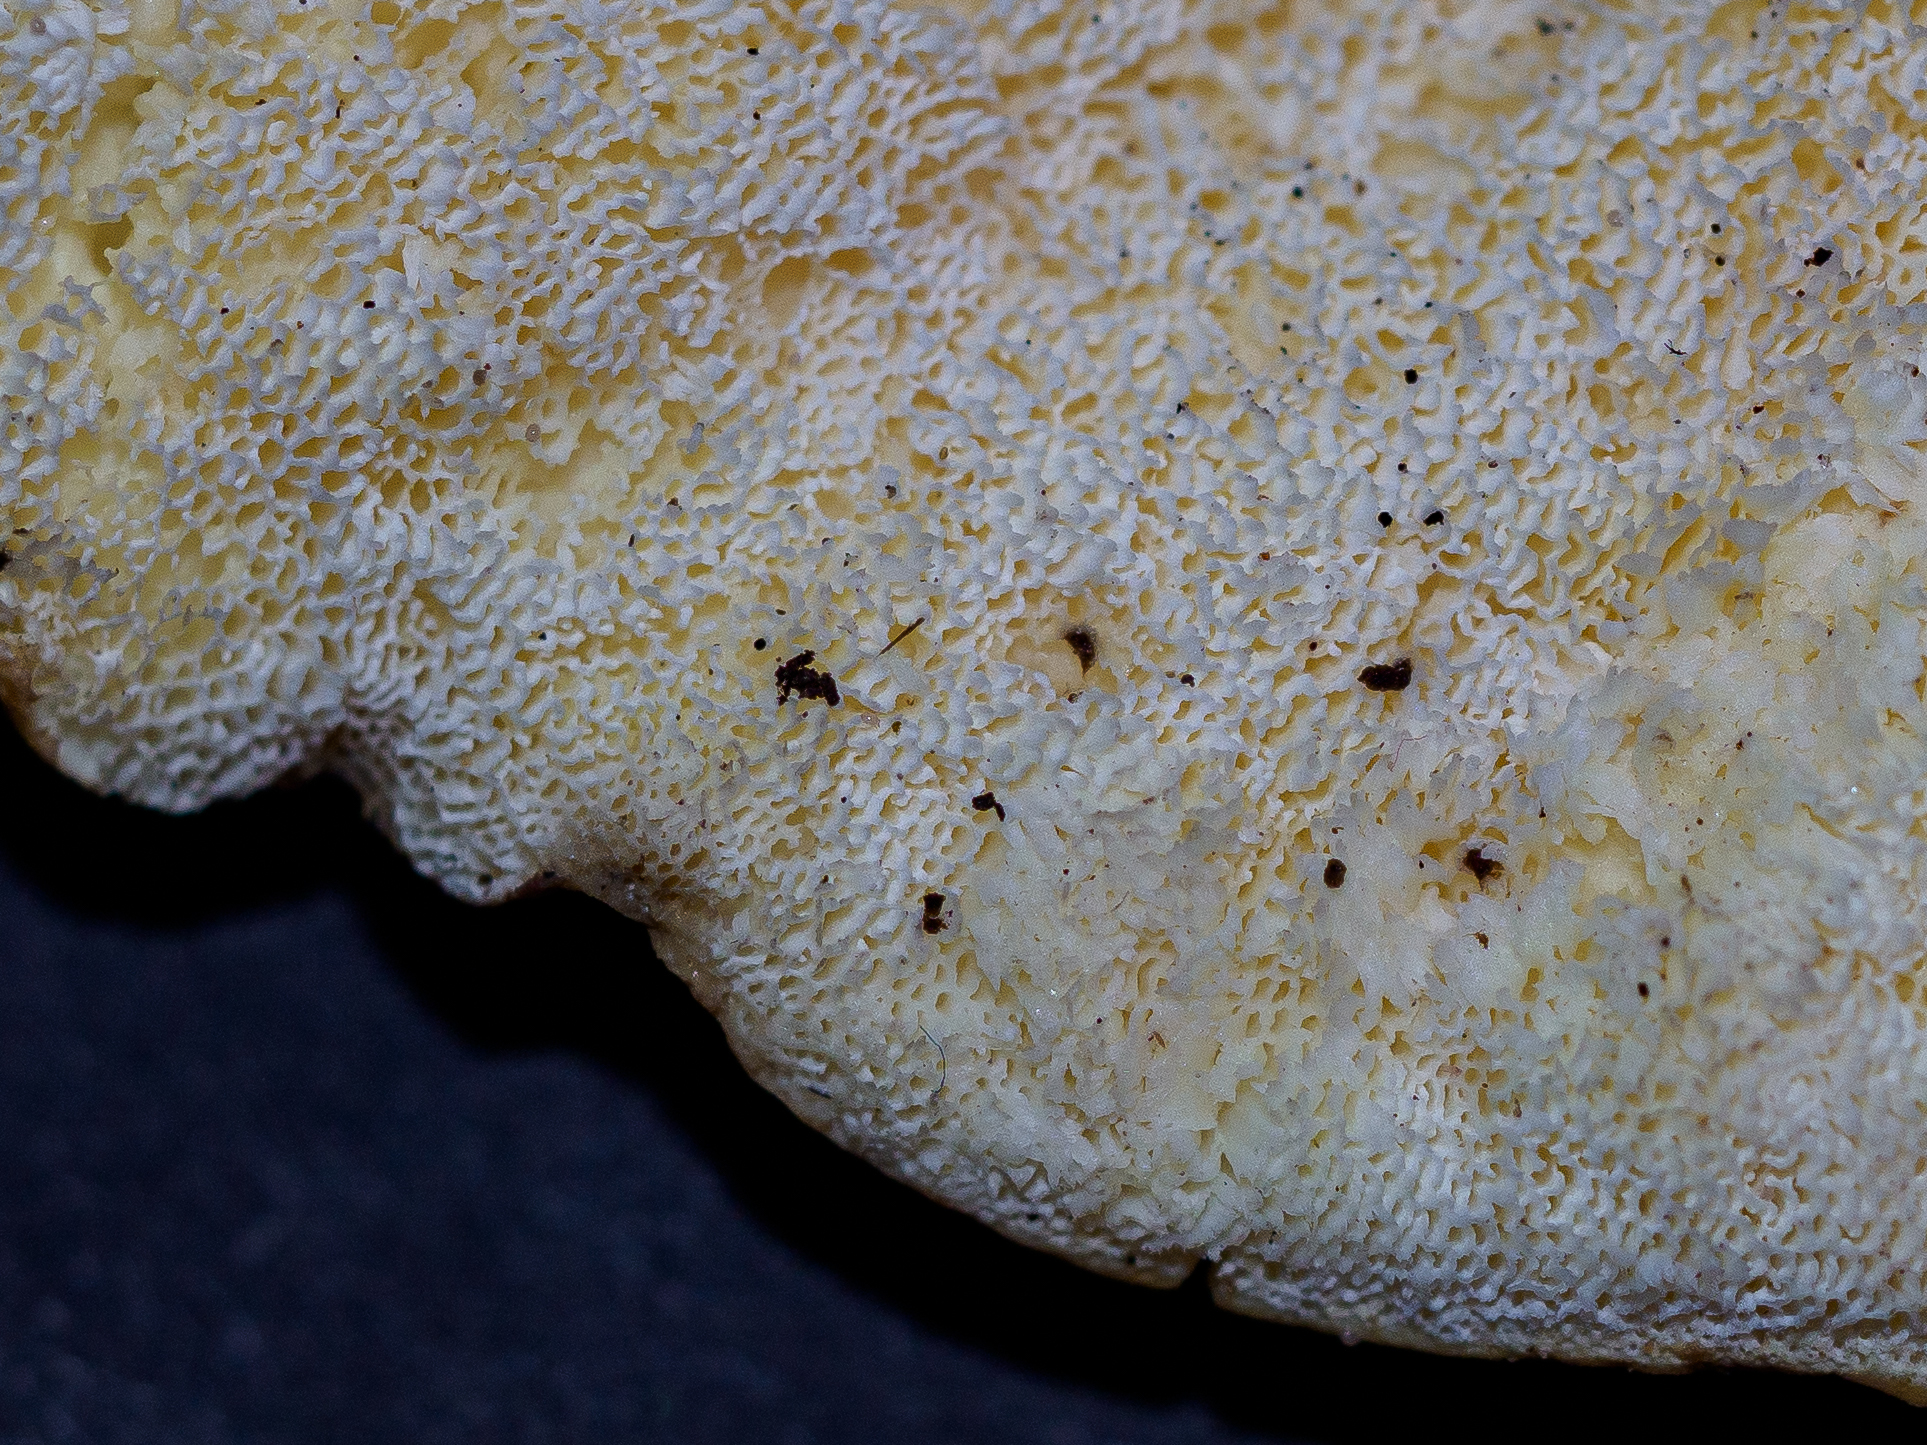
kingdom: Fungi
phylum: Basidiomycota
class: Agaricomycetes
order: Russulales
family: Albatrellaceae
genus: Albatrellus
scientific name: Albatrellus subrubescens
